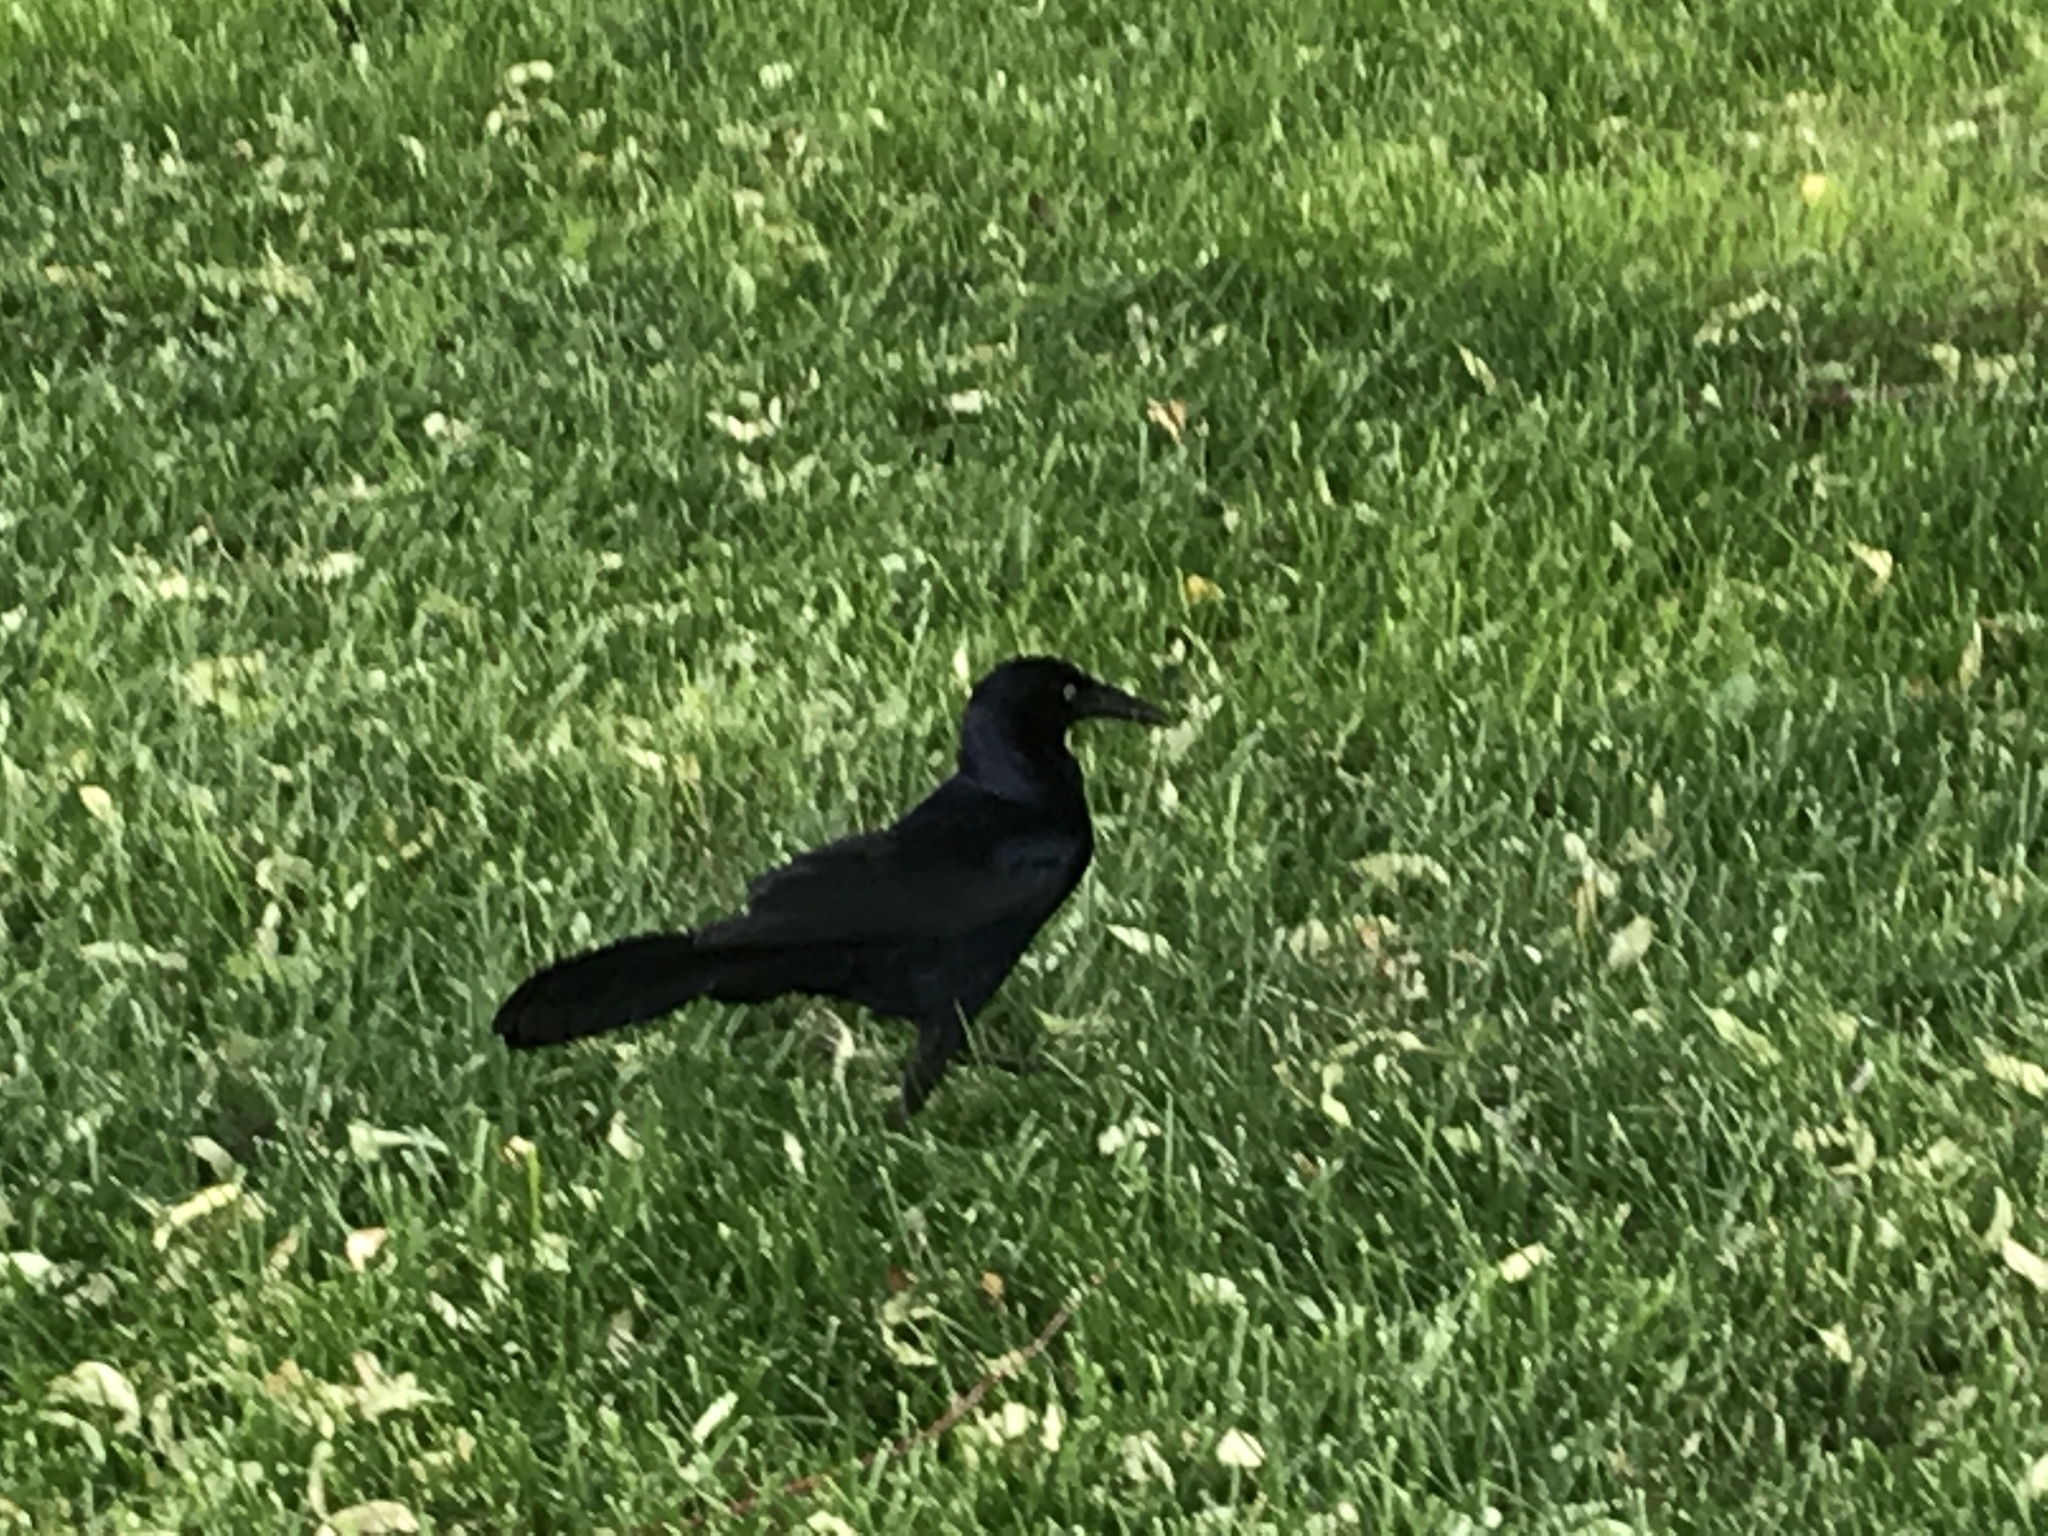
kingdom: Animalia
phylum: Chordata
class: Aves
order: Passeriformes
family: Icteridae
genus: Quiscalus
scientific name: Quiscalus mexicanus
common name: Great-tailed grackle
